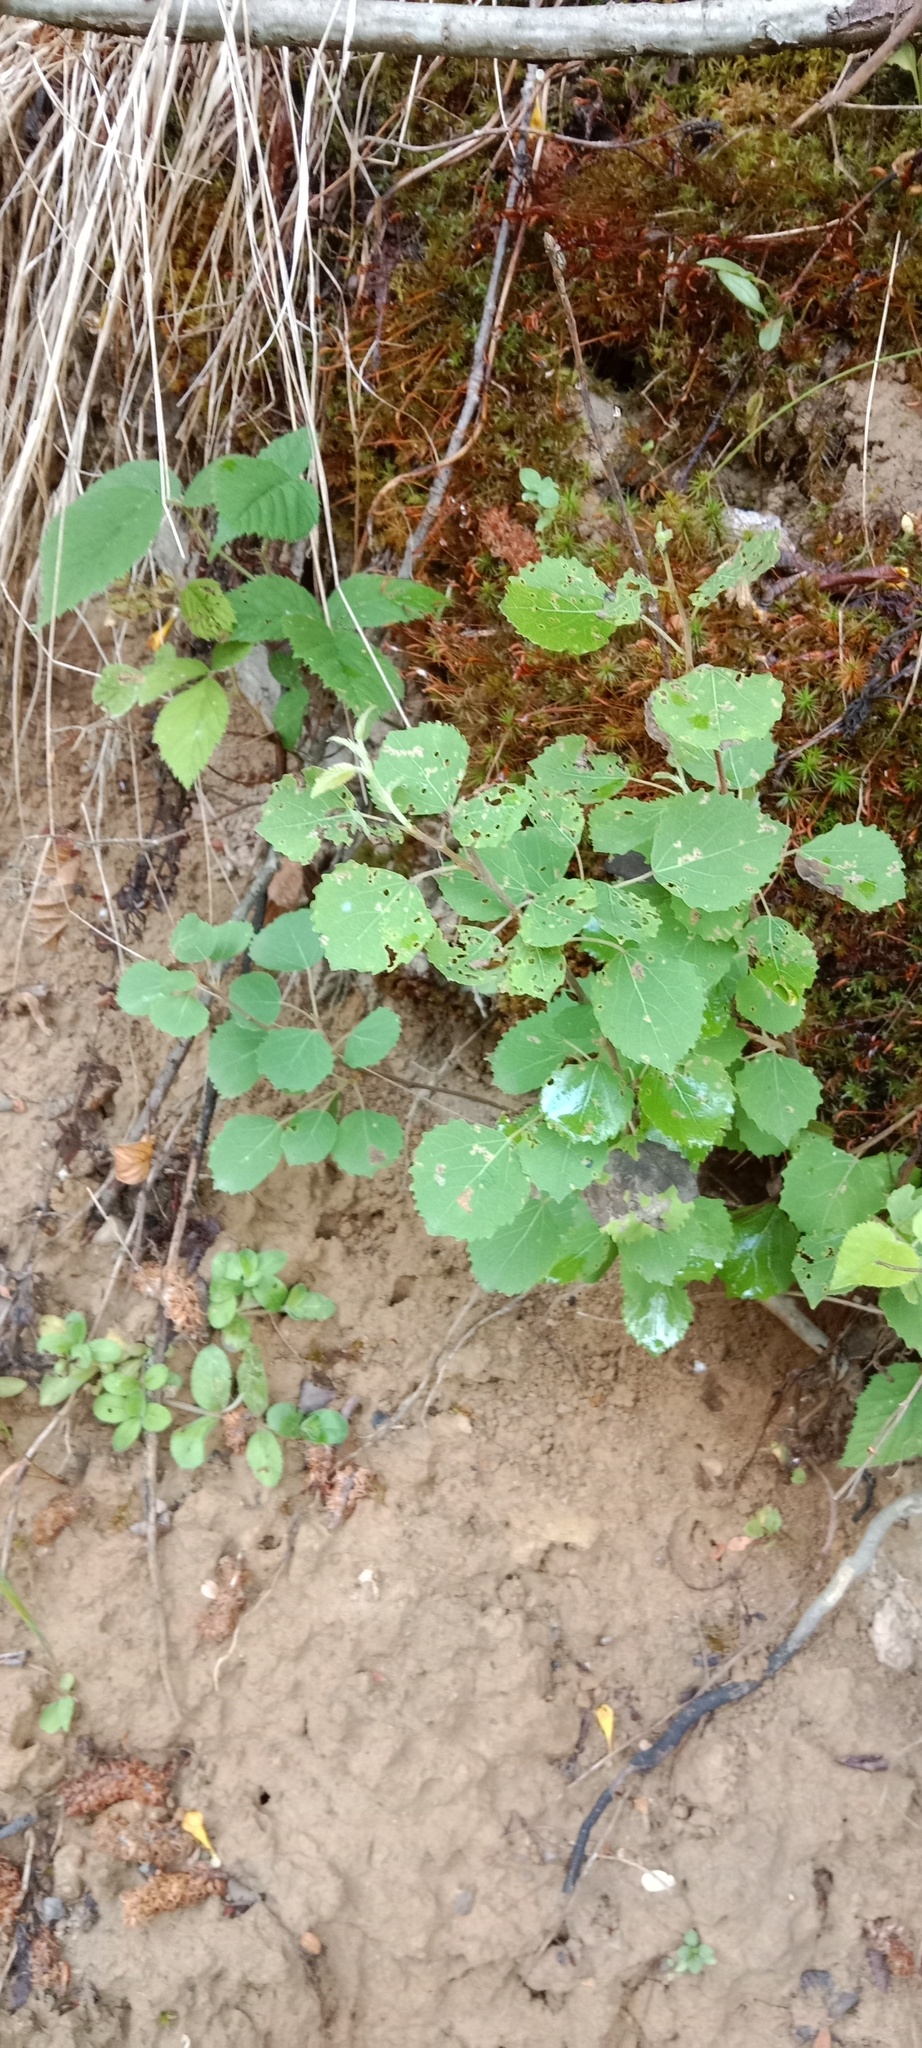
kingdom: Plantae
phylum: Tracheophyta
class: Magnoliopsida
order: Malpighiales
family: Salicaceae
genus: Populus
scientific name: Populus tremula
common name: European aspen
